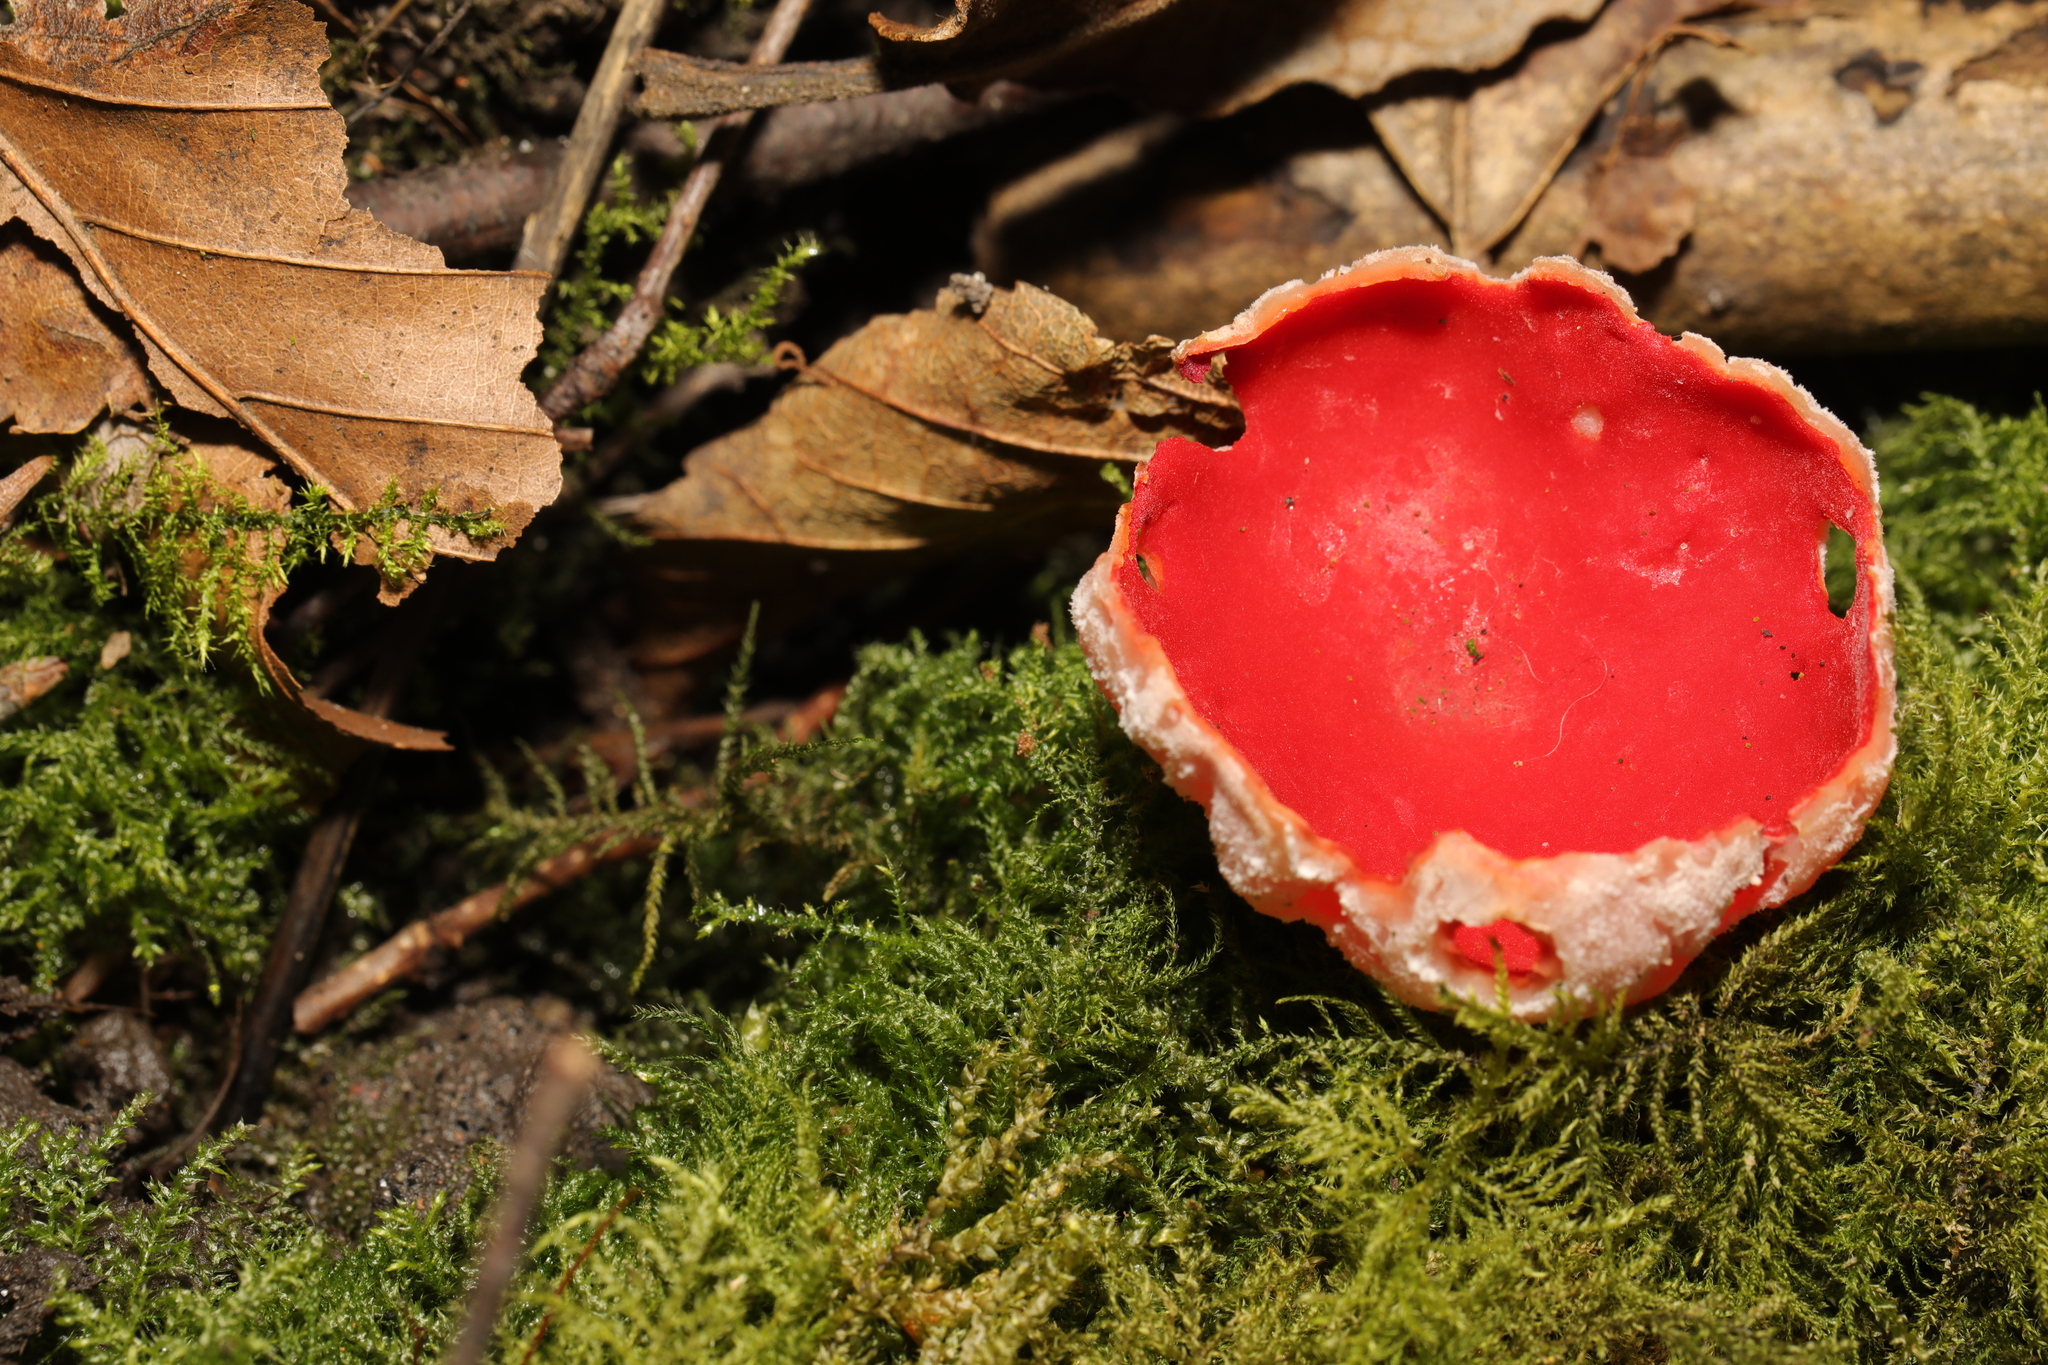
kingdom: Fungi
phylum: Ascomycota
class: Pezizomycetes
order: Pezizales
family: Sarcoscyphaceae
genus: Sarcoscypha
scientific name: Sarcoscypha
